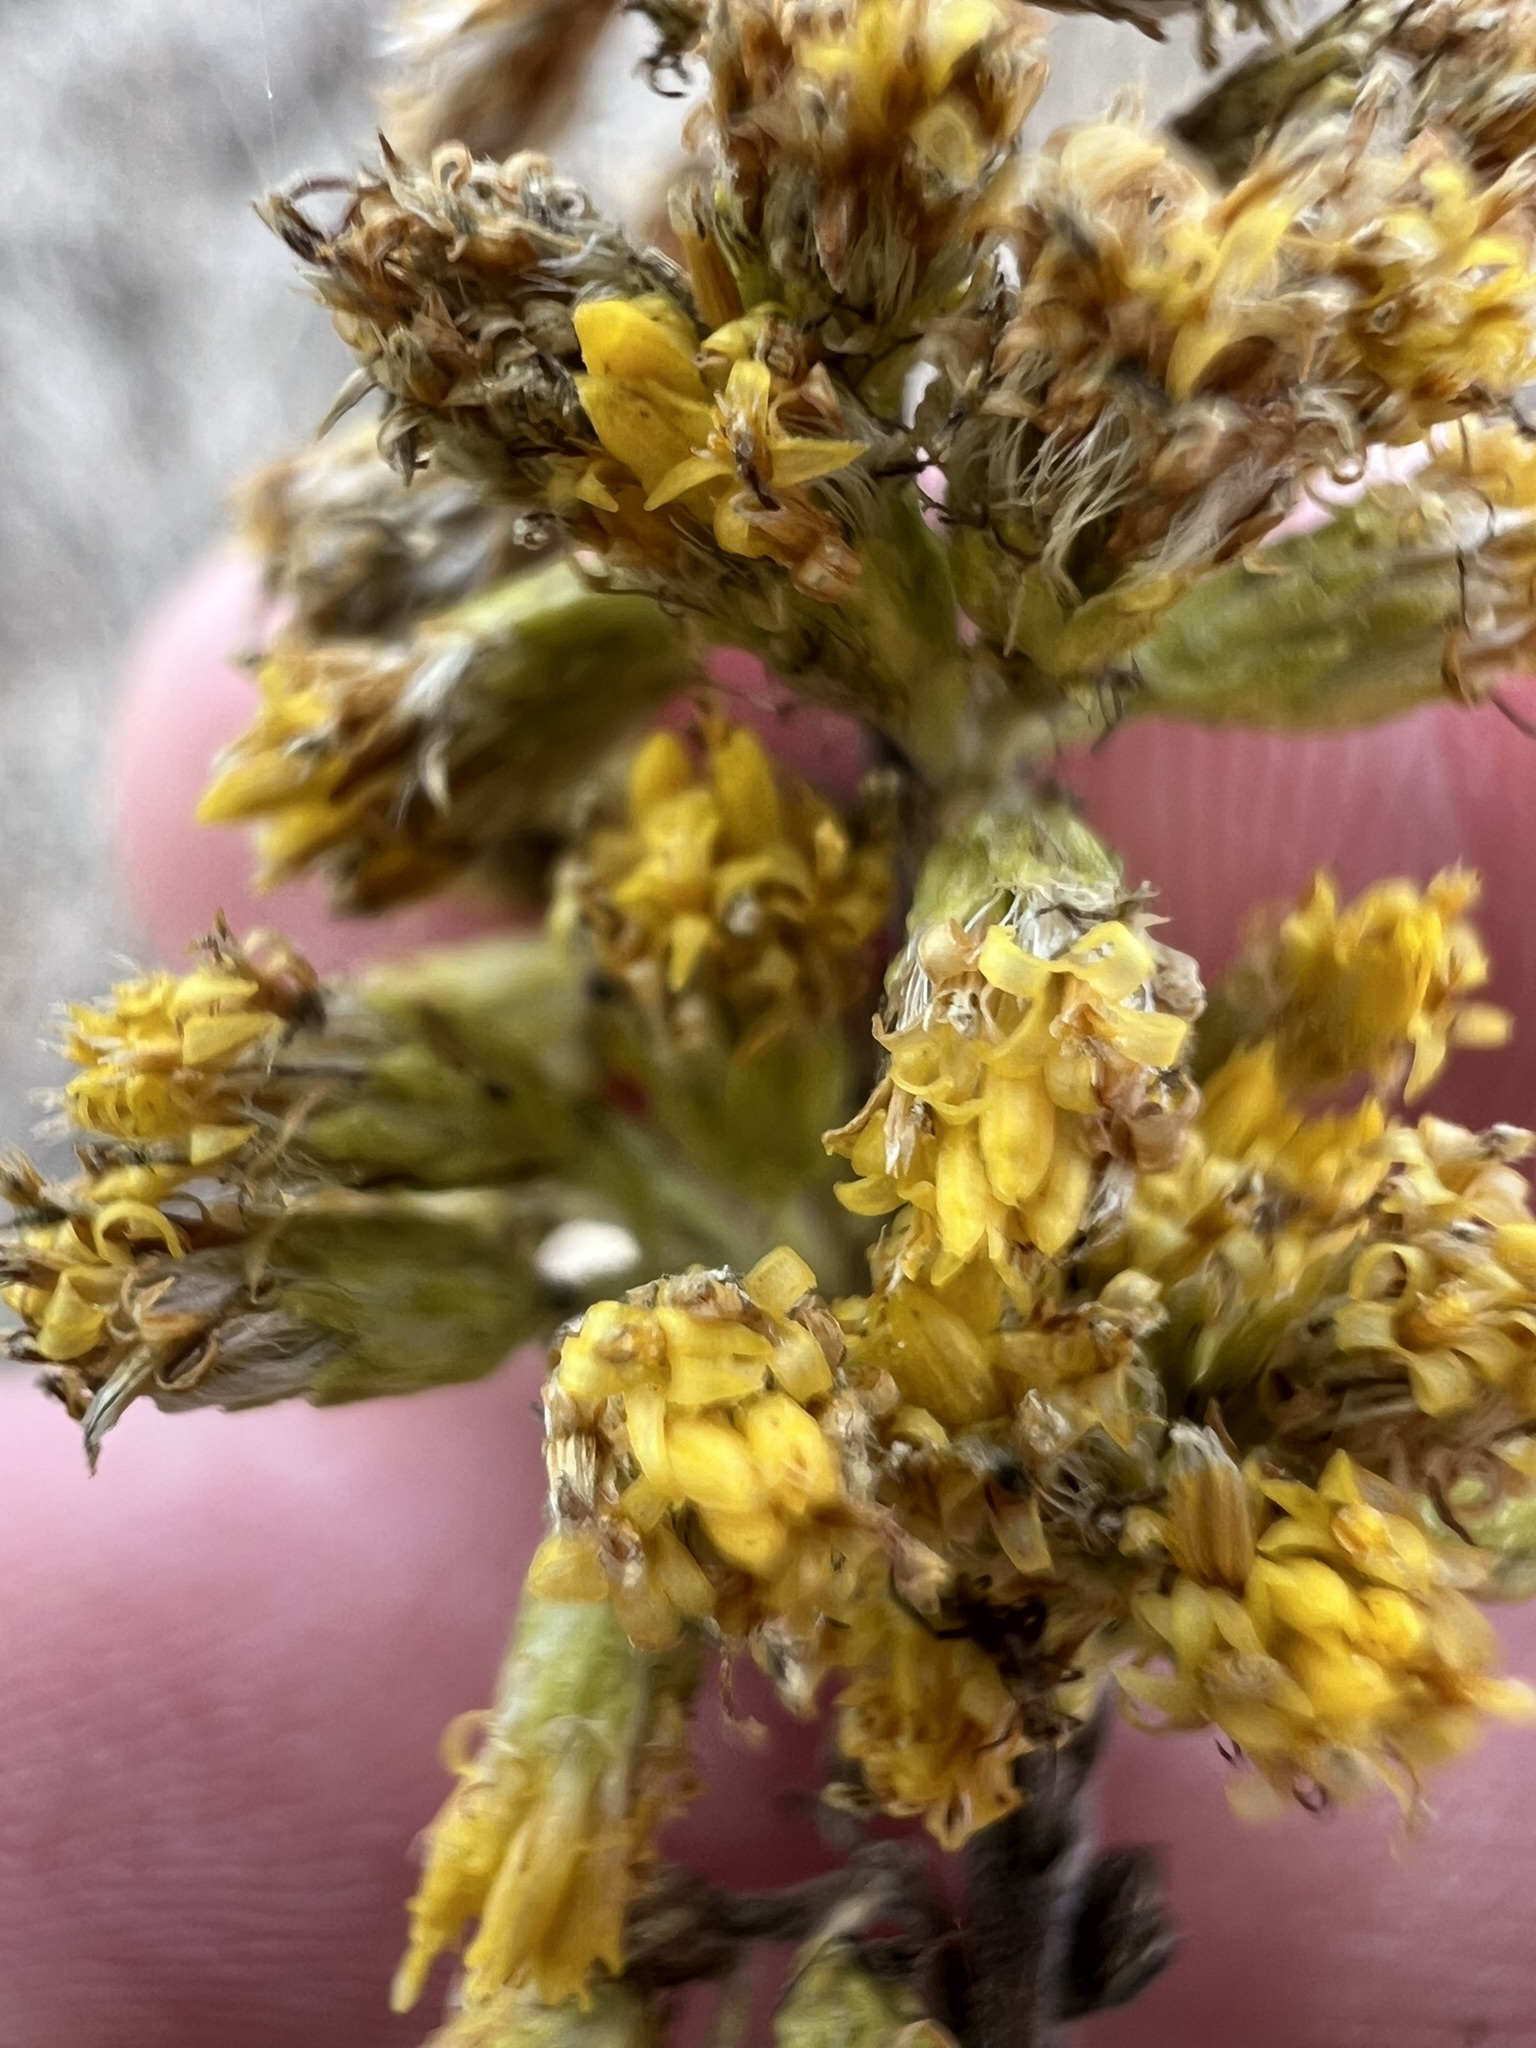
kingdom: Plantae
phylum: Tracheophyta
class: Magnoliopsida
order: Asterales
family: Asteraceae
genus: Solidago
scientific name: Solidago velutina
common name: Three-nerve goldenrod
